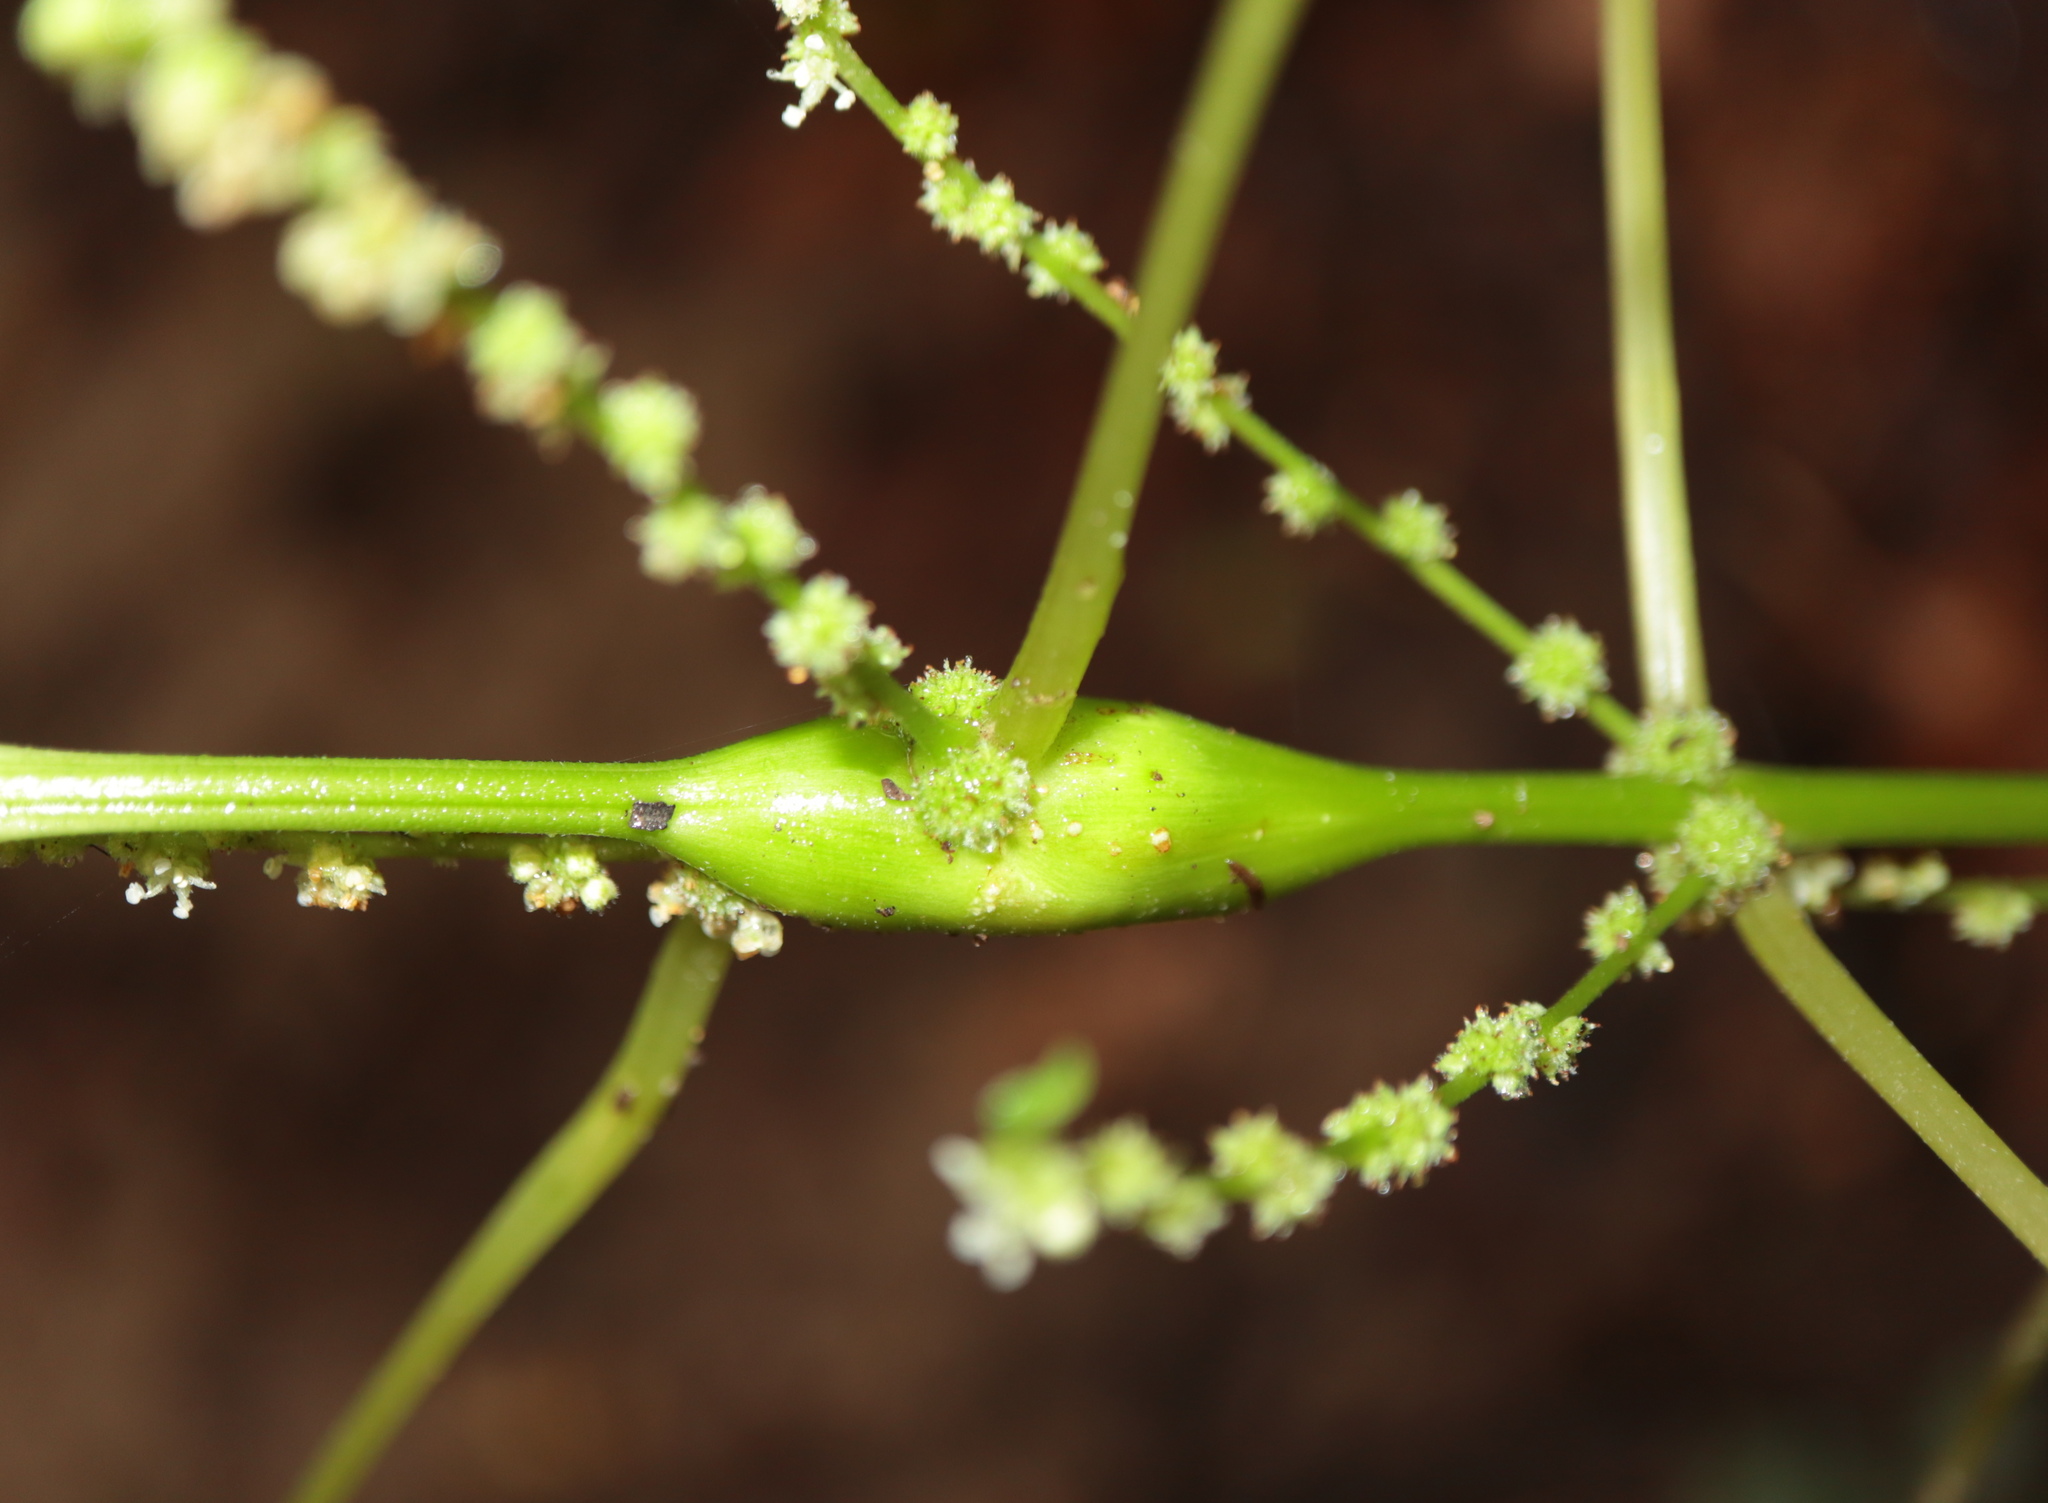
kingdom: Animalia
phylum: Arthropoda
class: Insecta
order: Diptera
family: Cecidomyiidae
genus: Neolasioptera
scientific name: Neolasioptera boehmeriae
